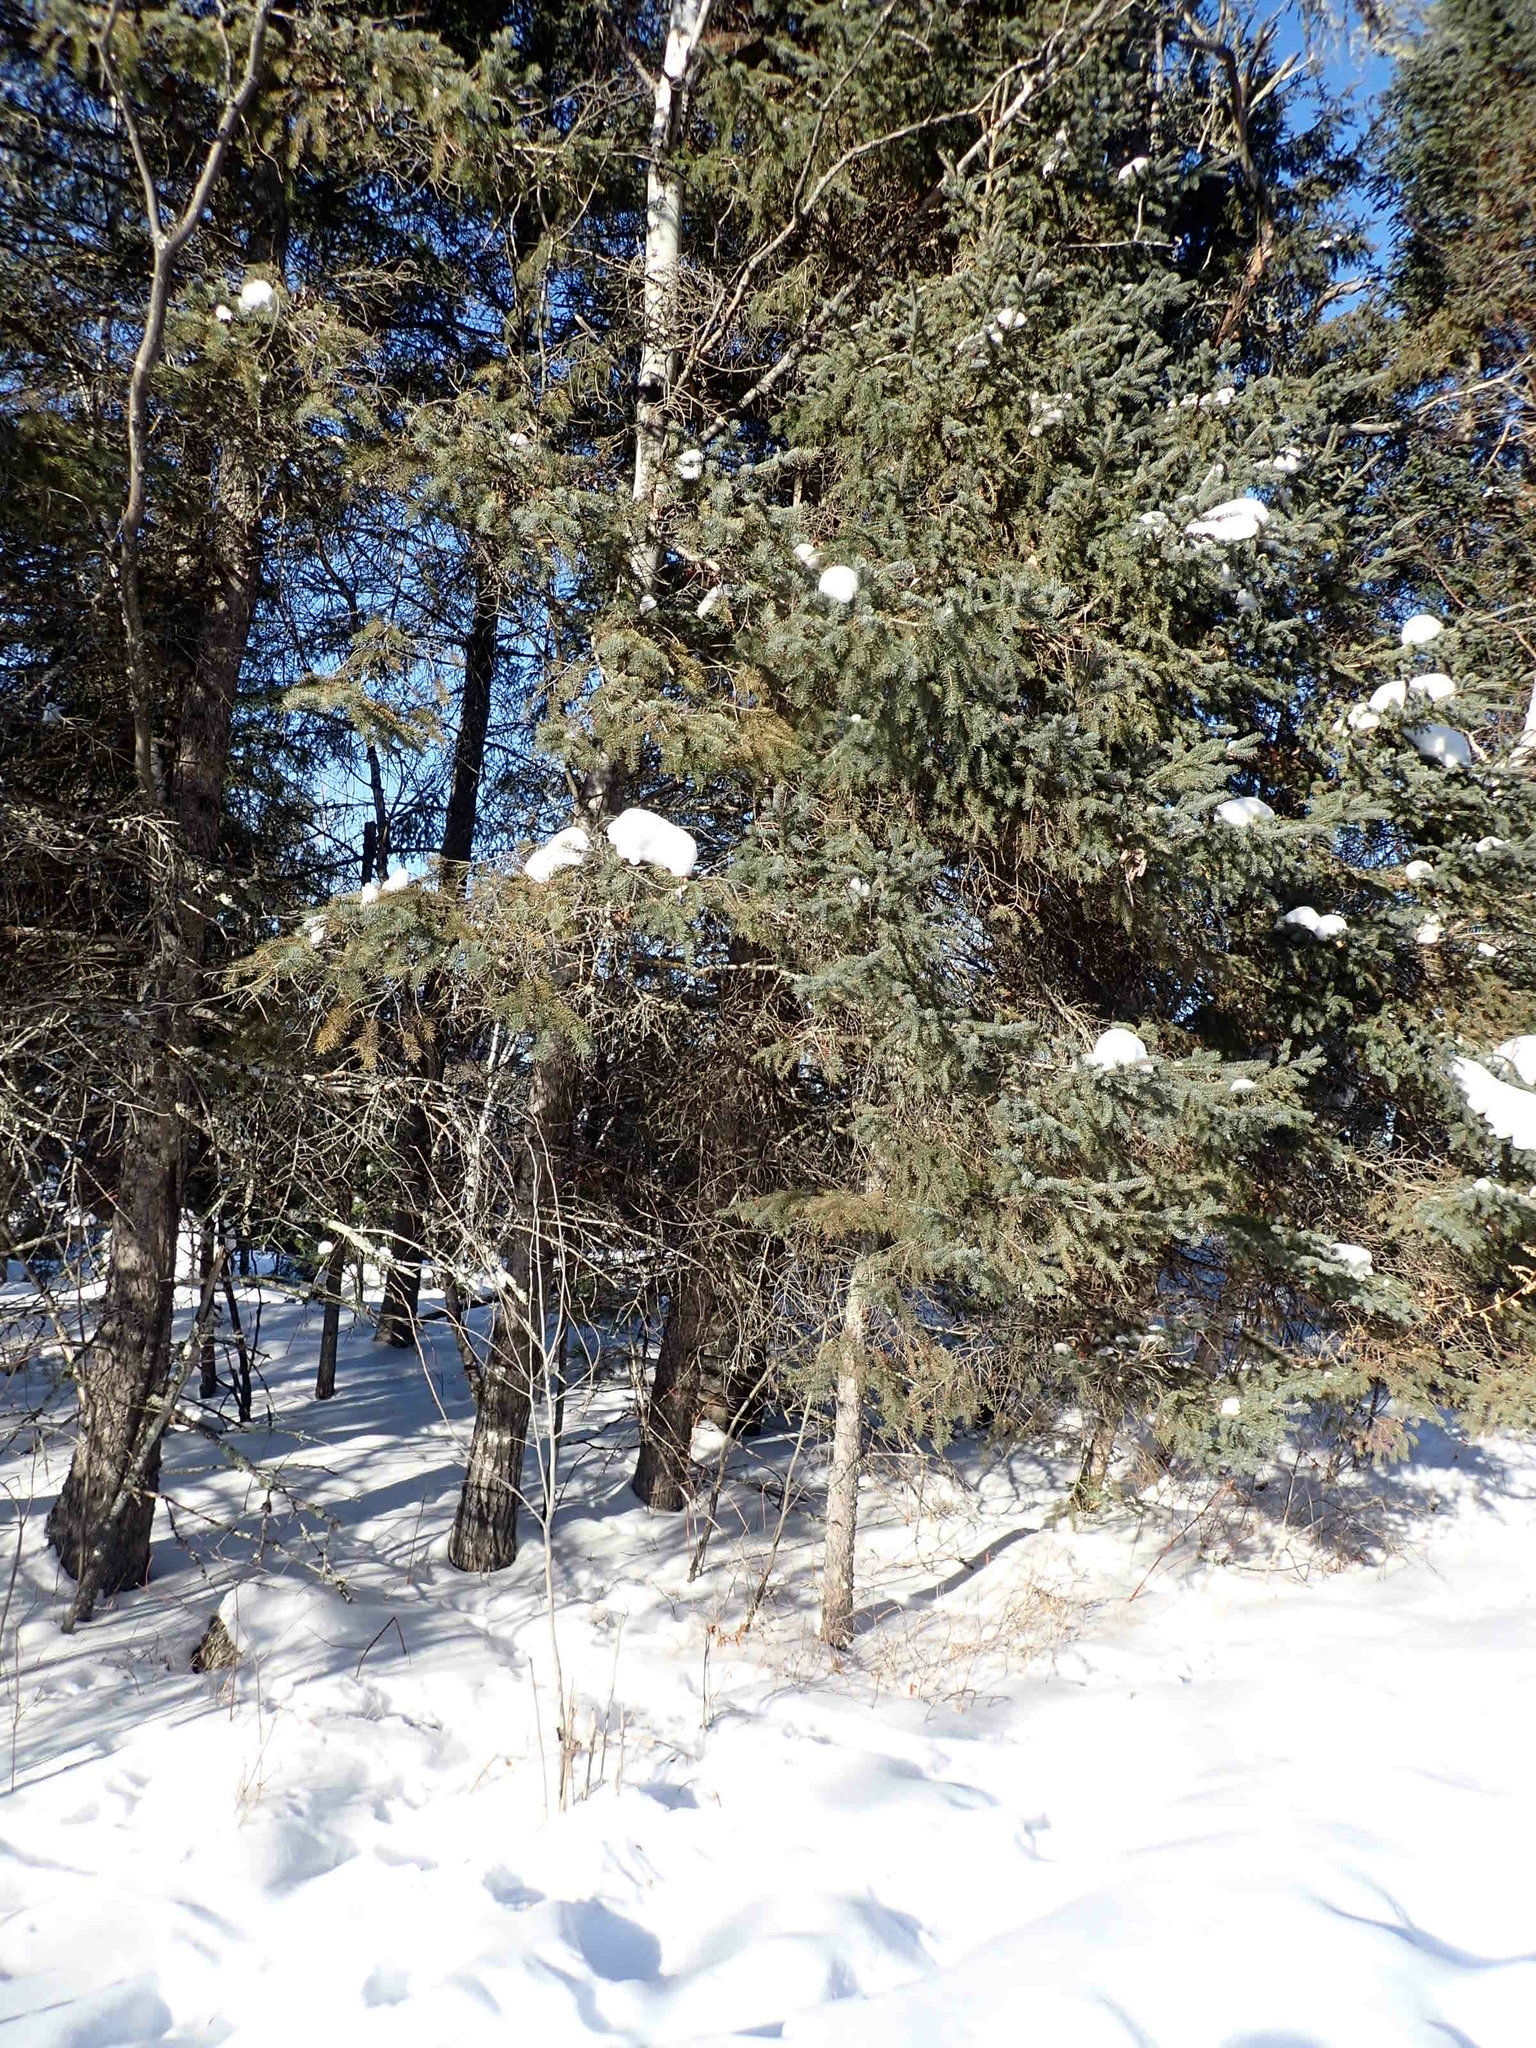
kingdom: Plantae
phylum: Tracheophyta
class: Pinopsida
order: Pinales
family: Pinaceae
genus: Picea
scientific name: Picea glauca
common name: White spruce
